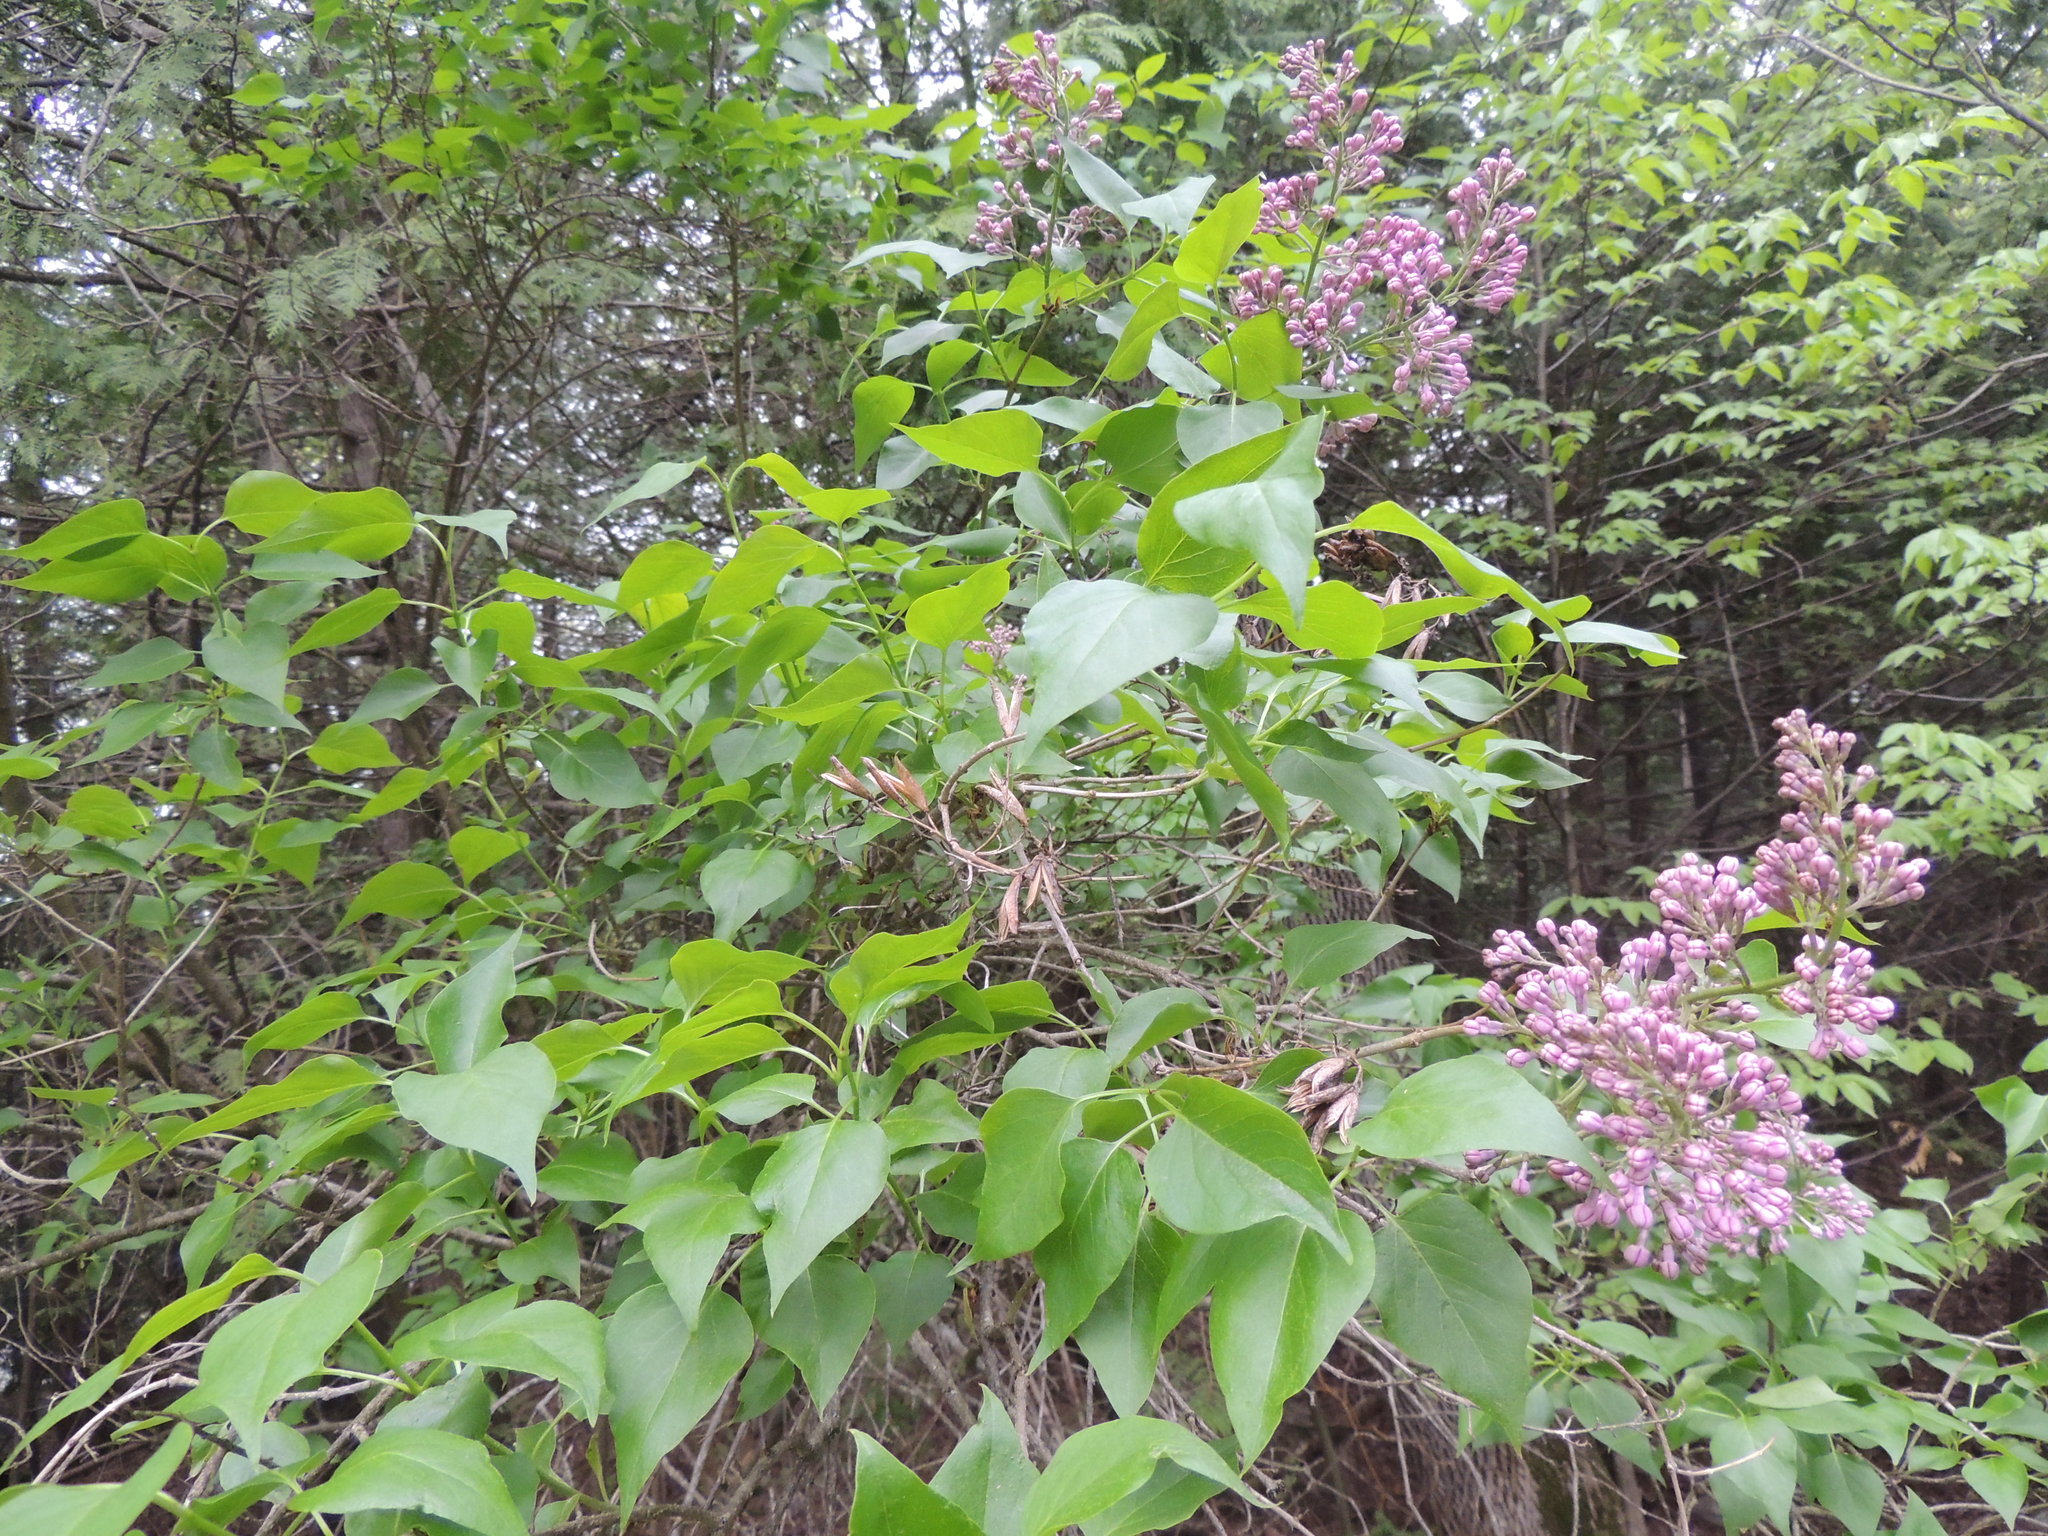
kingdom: Plantae
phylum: Tracheophyta
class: Magnoliopsida
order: Lamiales
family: Oleaceae
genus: Syringa
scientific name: Syringa vulgaris
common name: Common lilac
